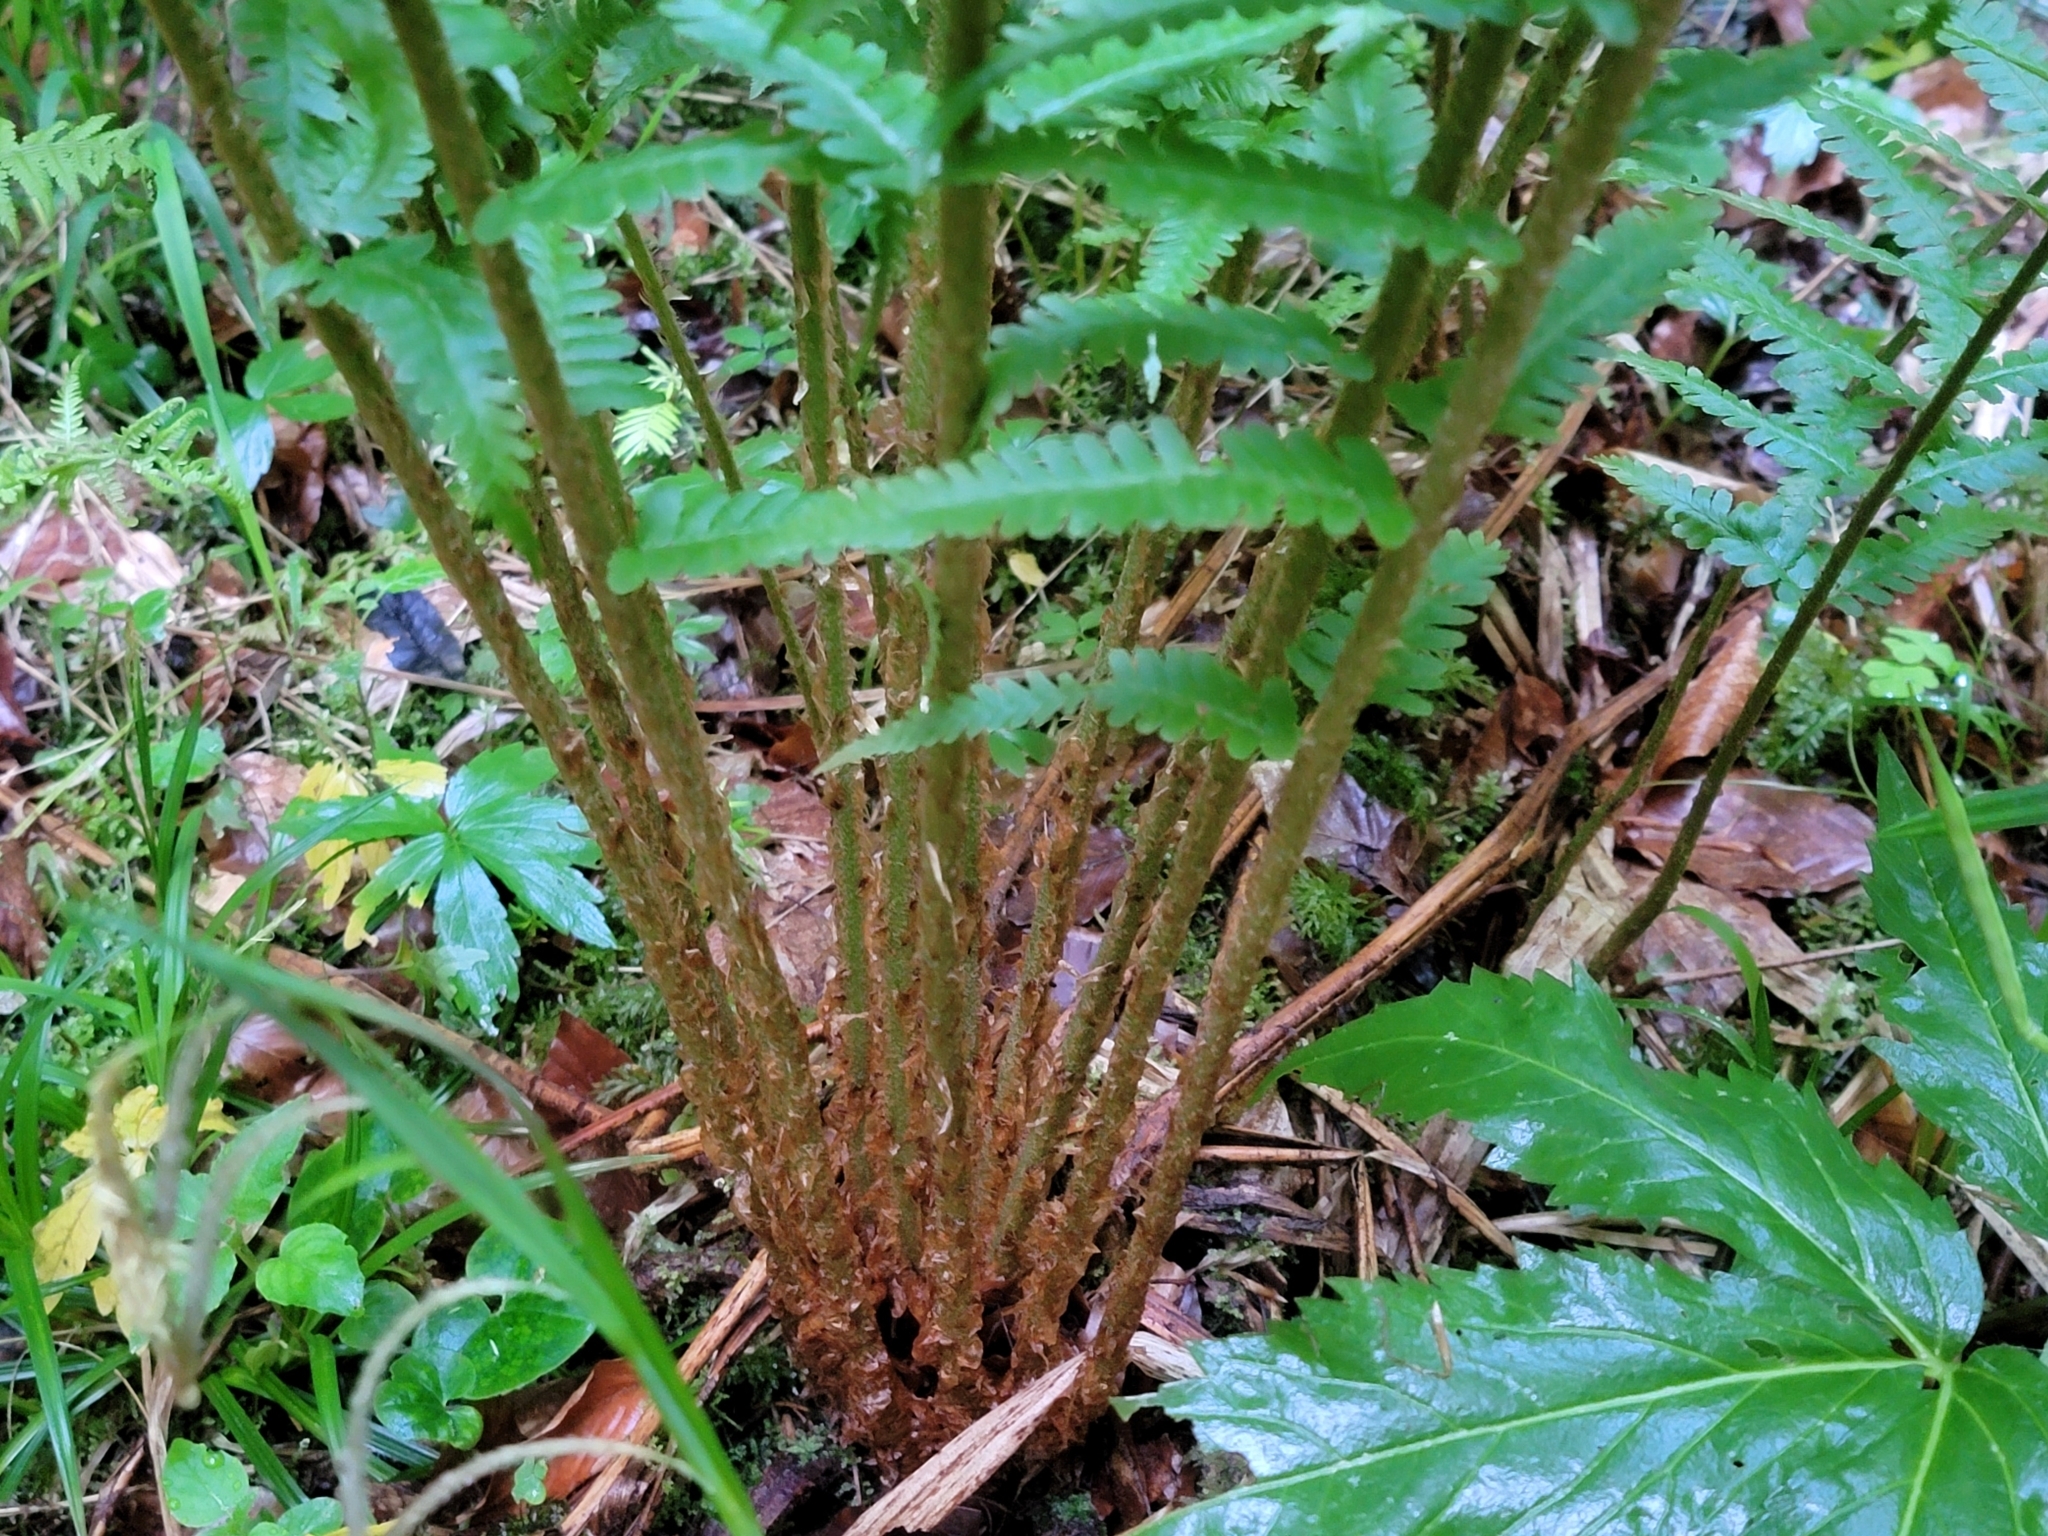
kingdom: Plantae
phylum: Tracheophyta
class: Polypodiopsida
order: Polypodiales
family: Dryopteridaceae
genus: Dryopteris
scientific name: Dryopteris filix-mas
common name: Male fern
